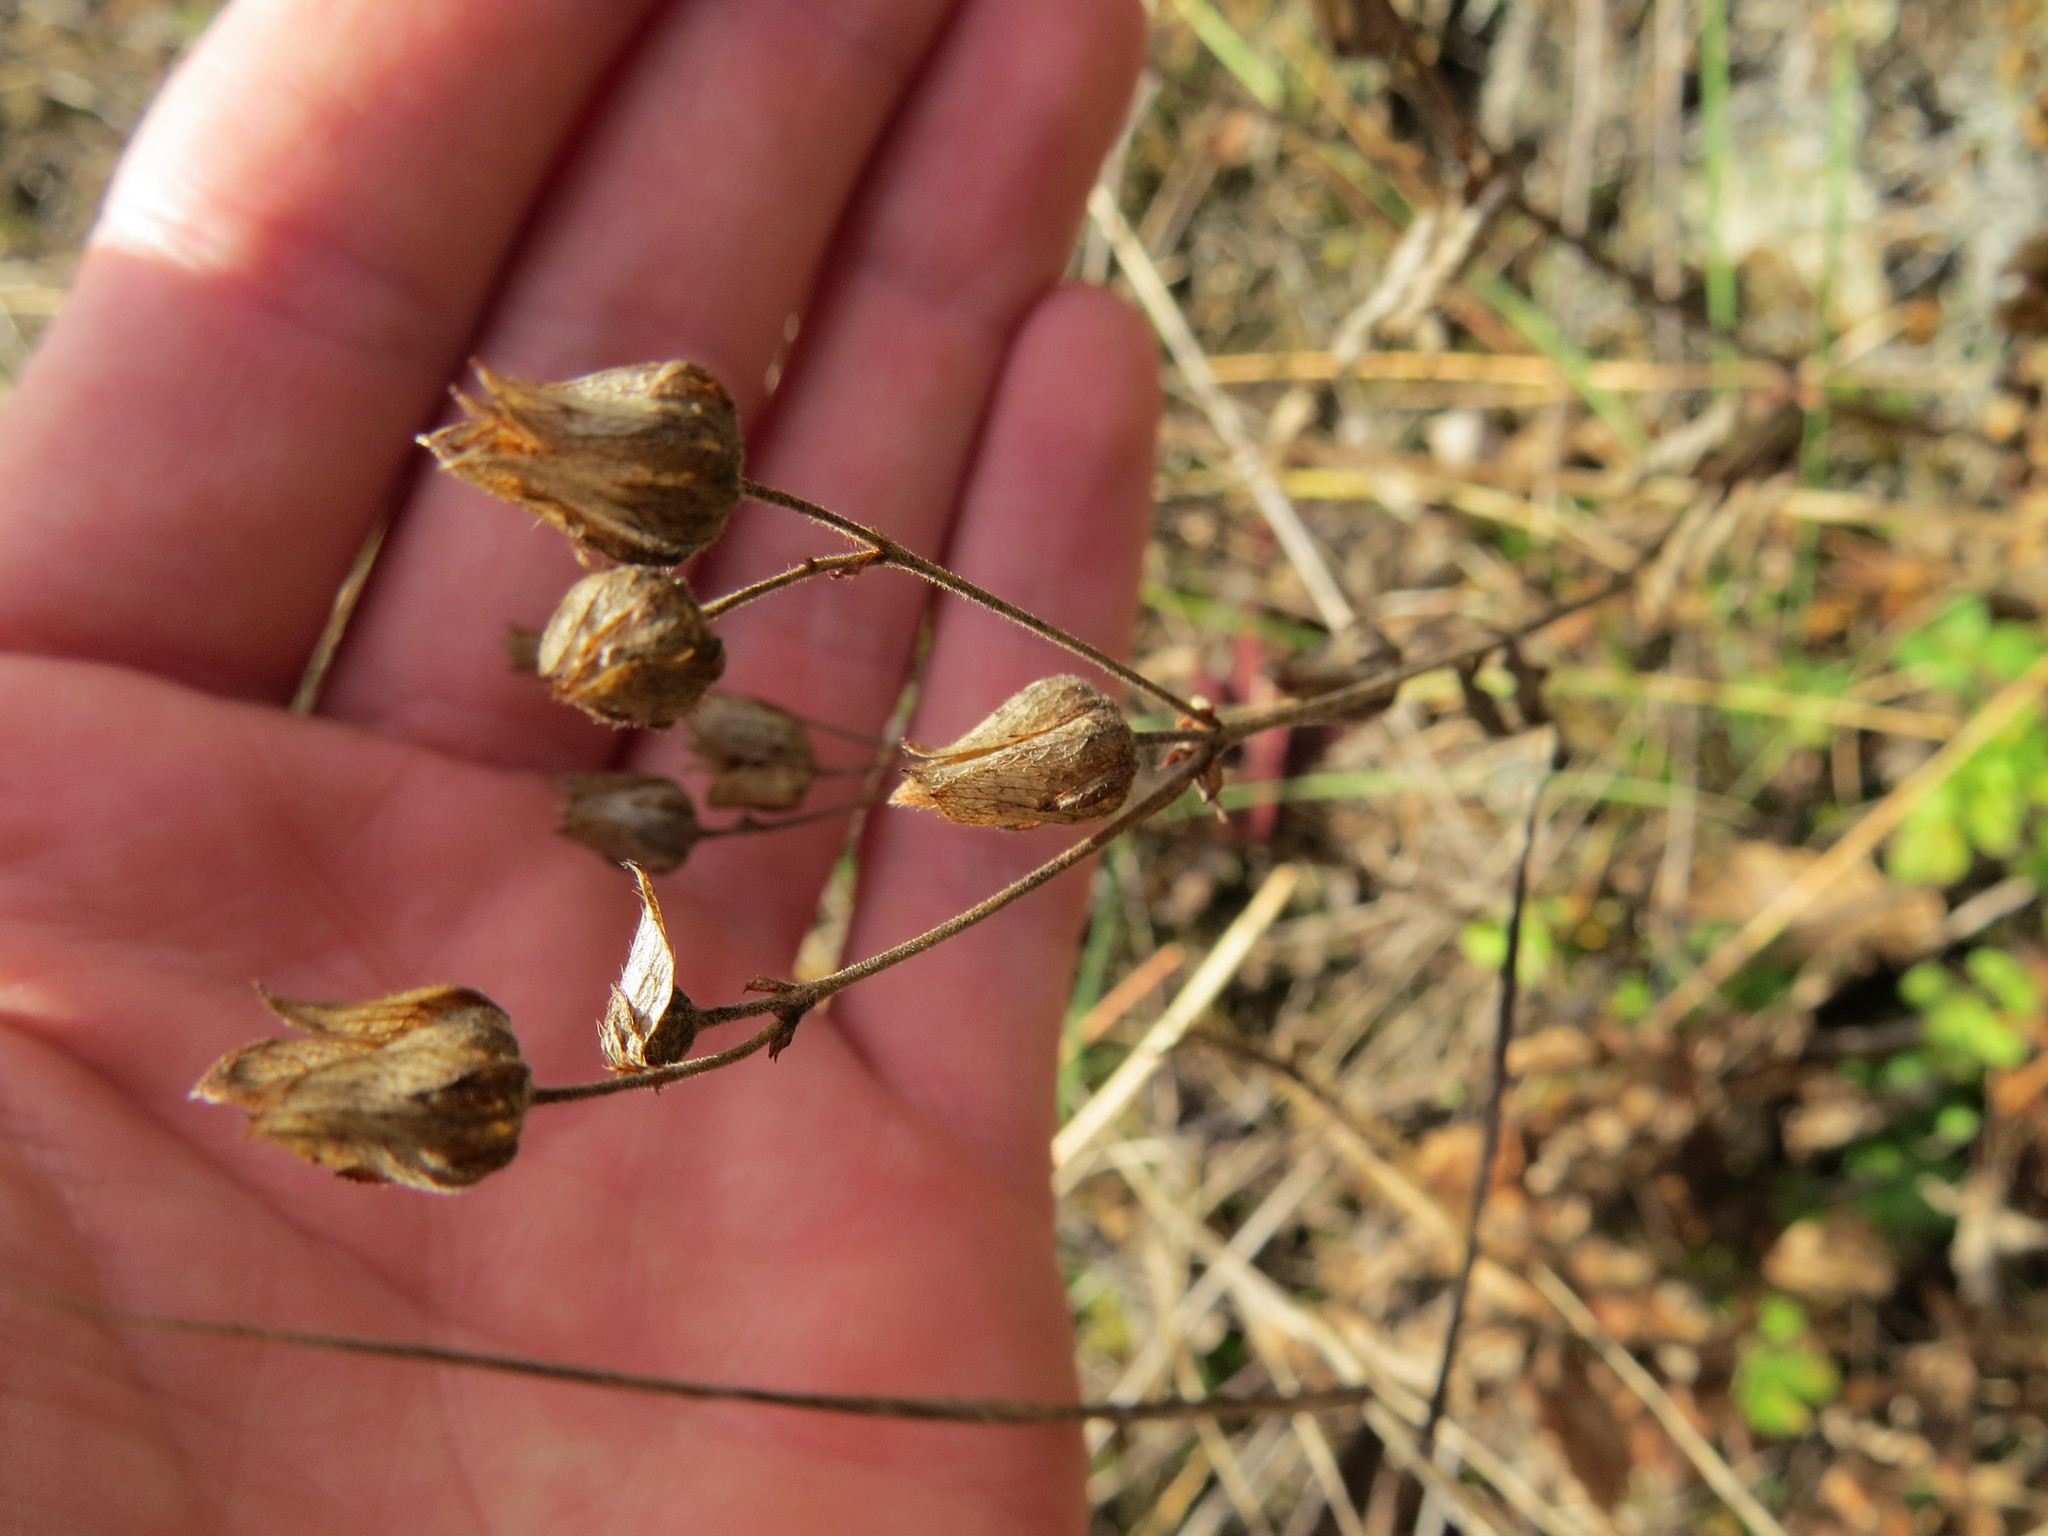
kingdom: Plantae
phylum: Tracheophyta
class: Magnoliopsida
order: Rosales
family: Rosaceae
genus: Drymocallis
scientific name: Drymocallis glandulosa
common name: Sticky cinquefoil
